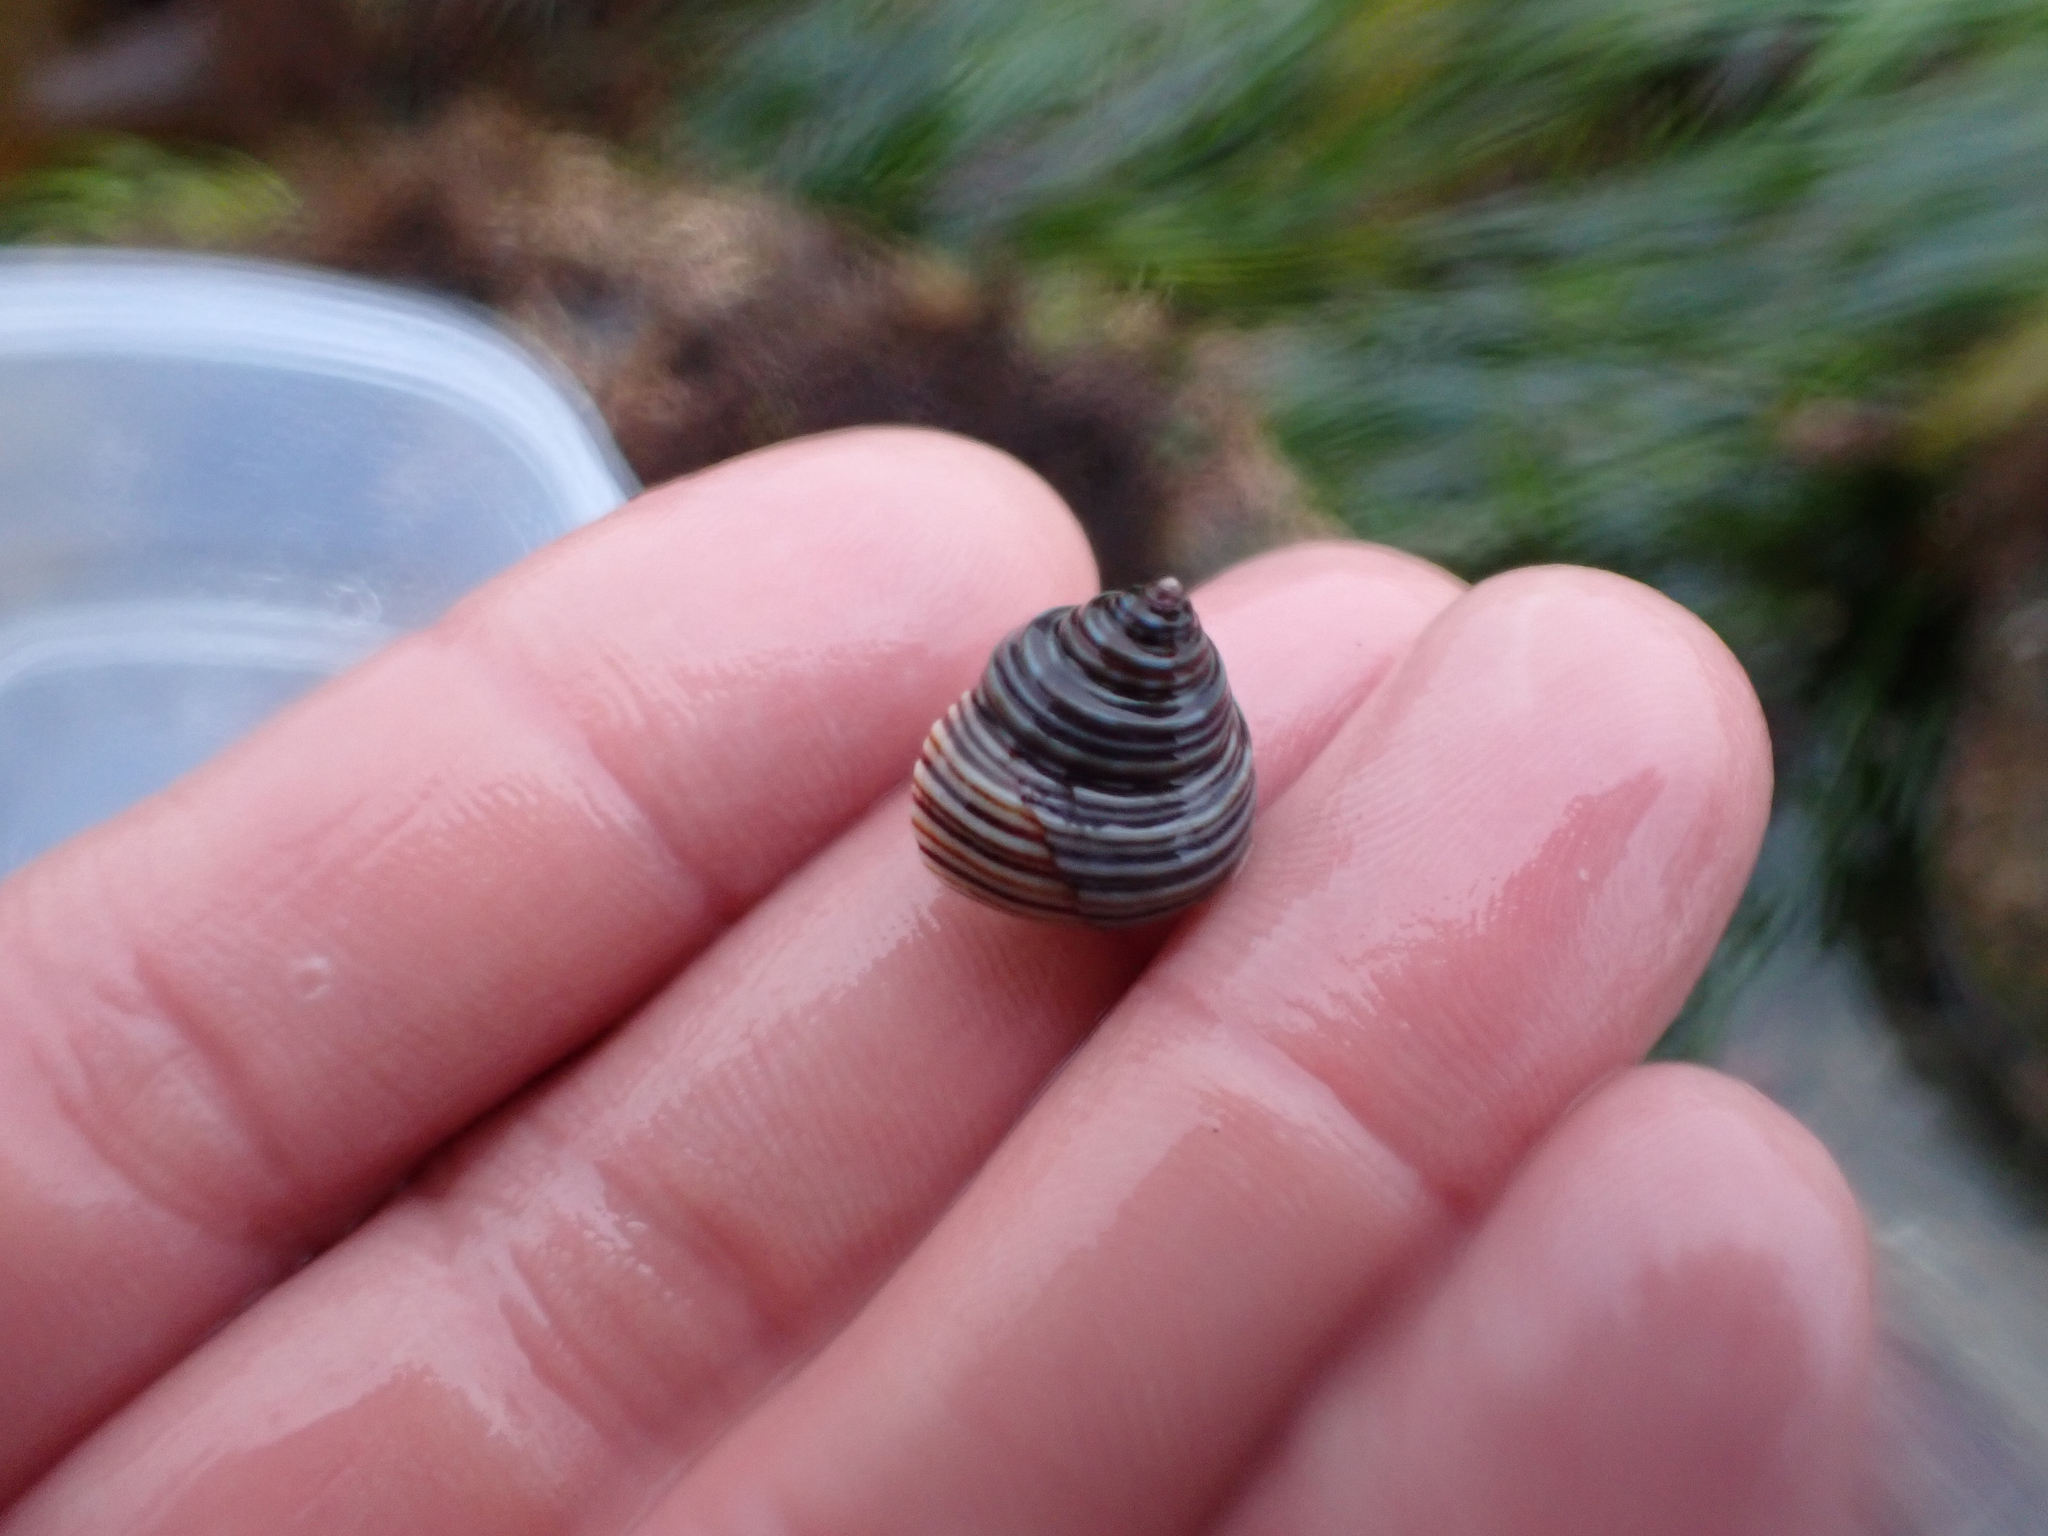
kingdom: Animalia
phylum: Mollusca
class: Gastropoda
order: Trochida
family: Calliostomatidae
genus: Calliostoma
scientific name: Calliostoma ligatum
